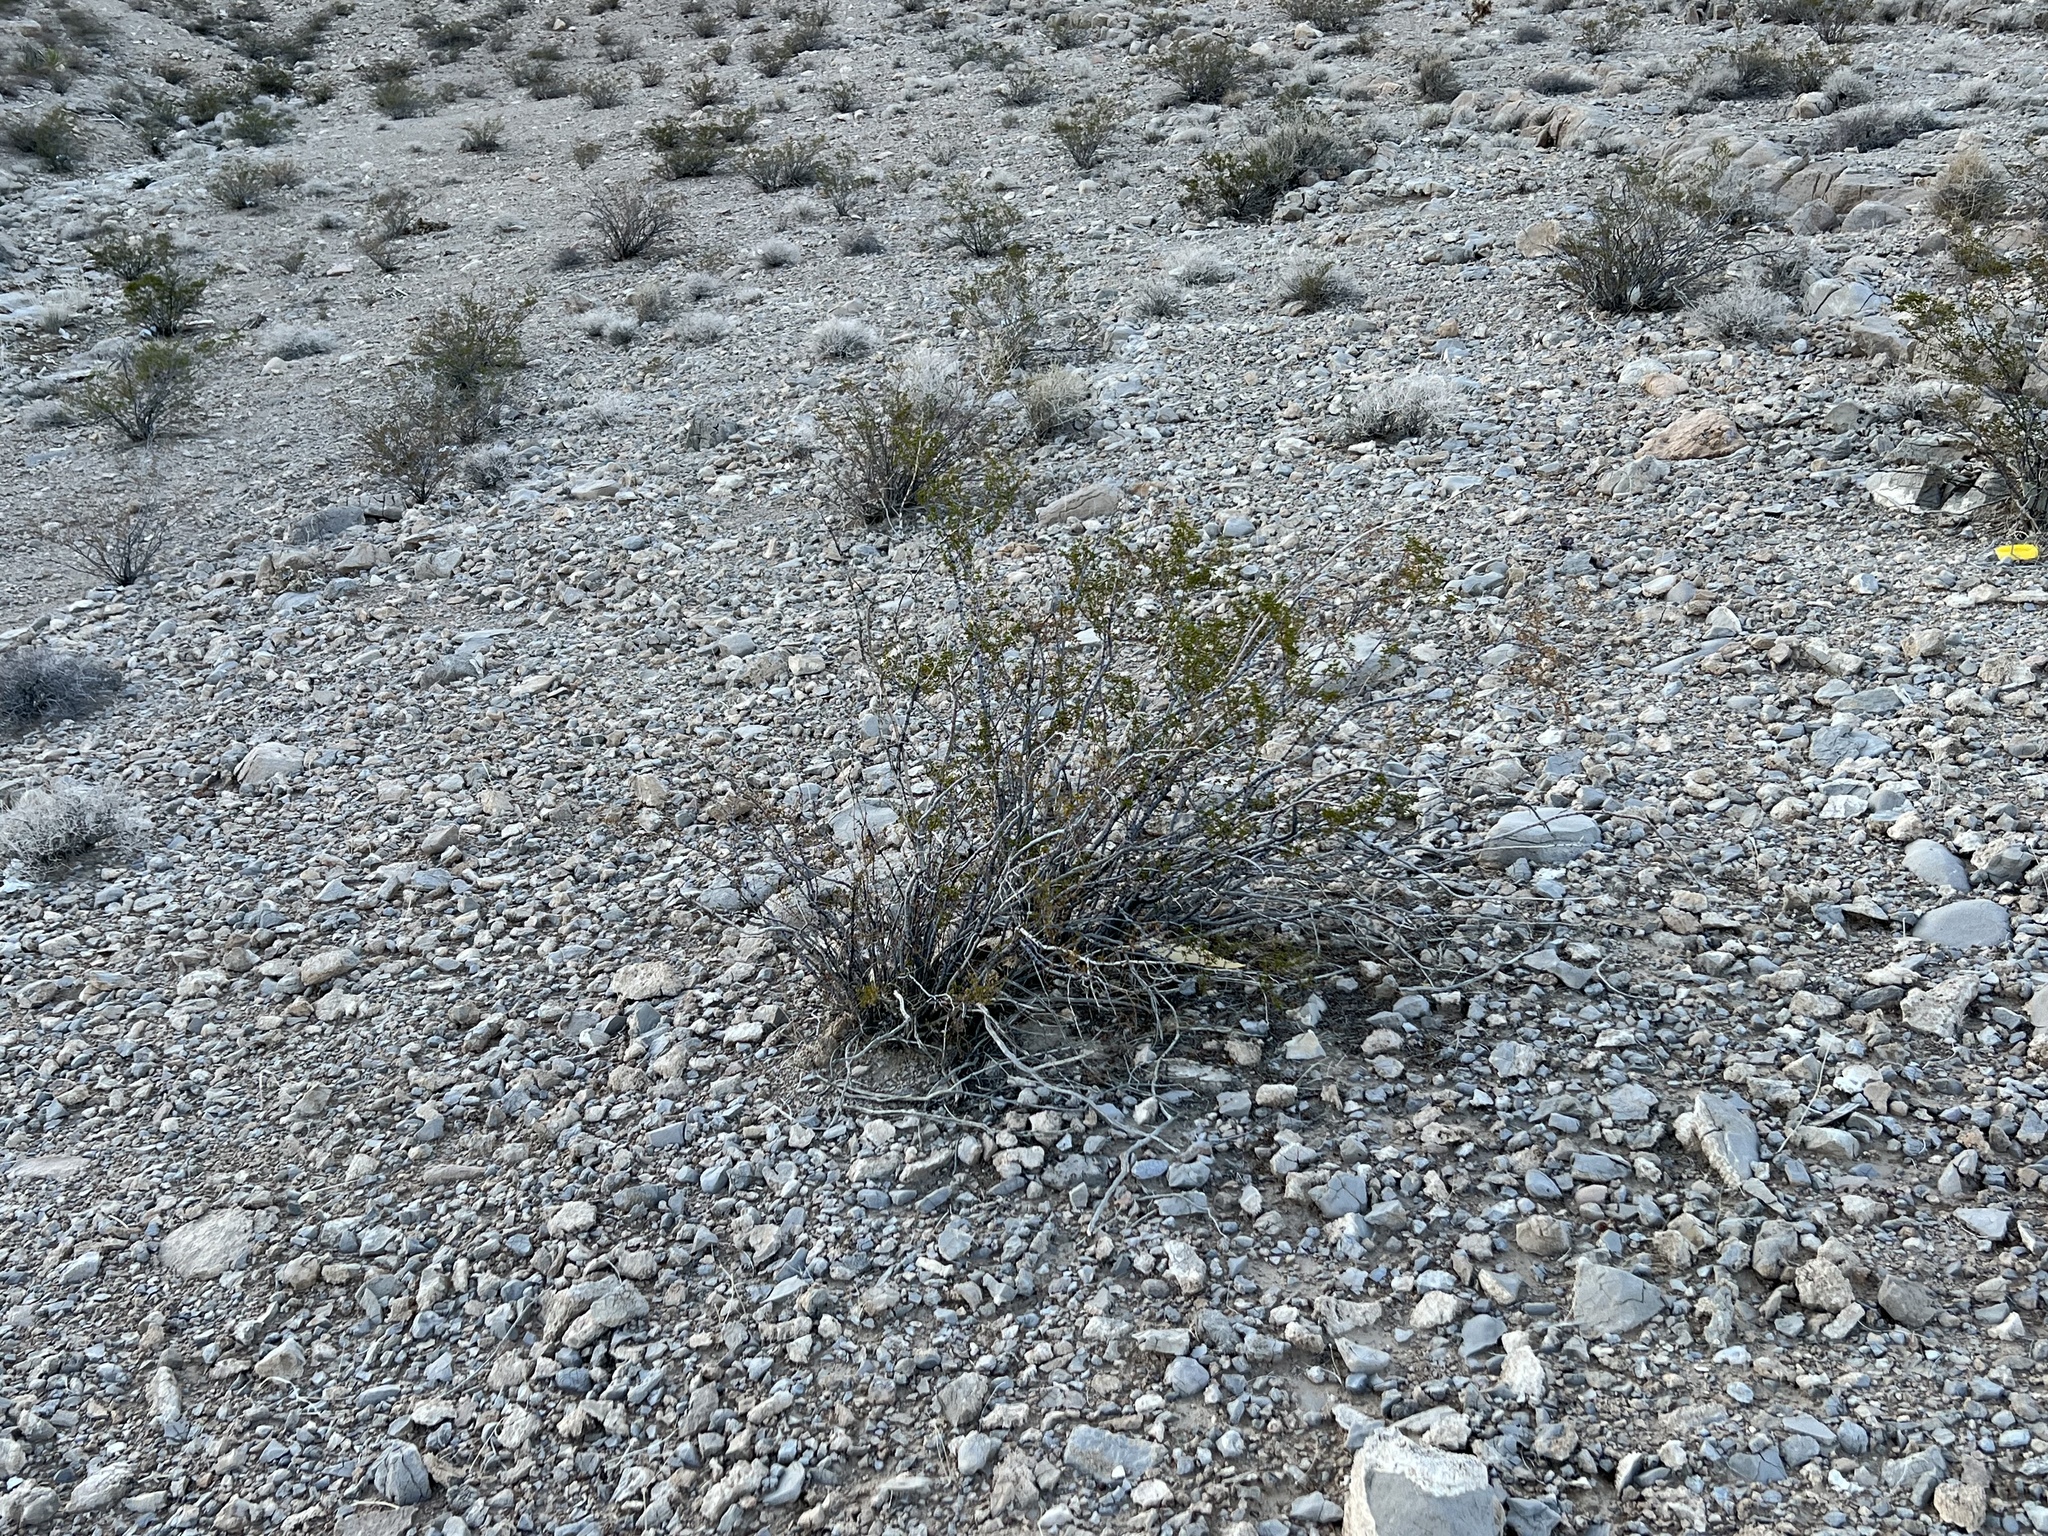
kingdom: Plantae
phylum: Tracheophyta
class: Magnoliopsida
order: Zygophyllales
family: Zygophyllaceae
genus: Larrea
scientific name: Larrea tridentata
